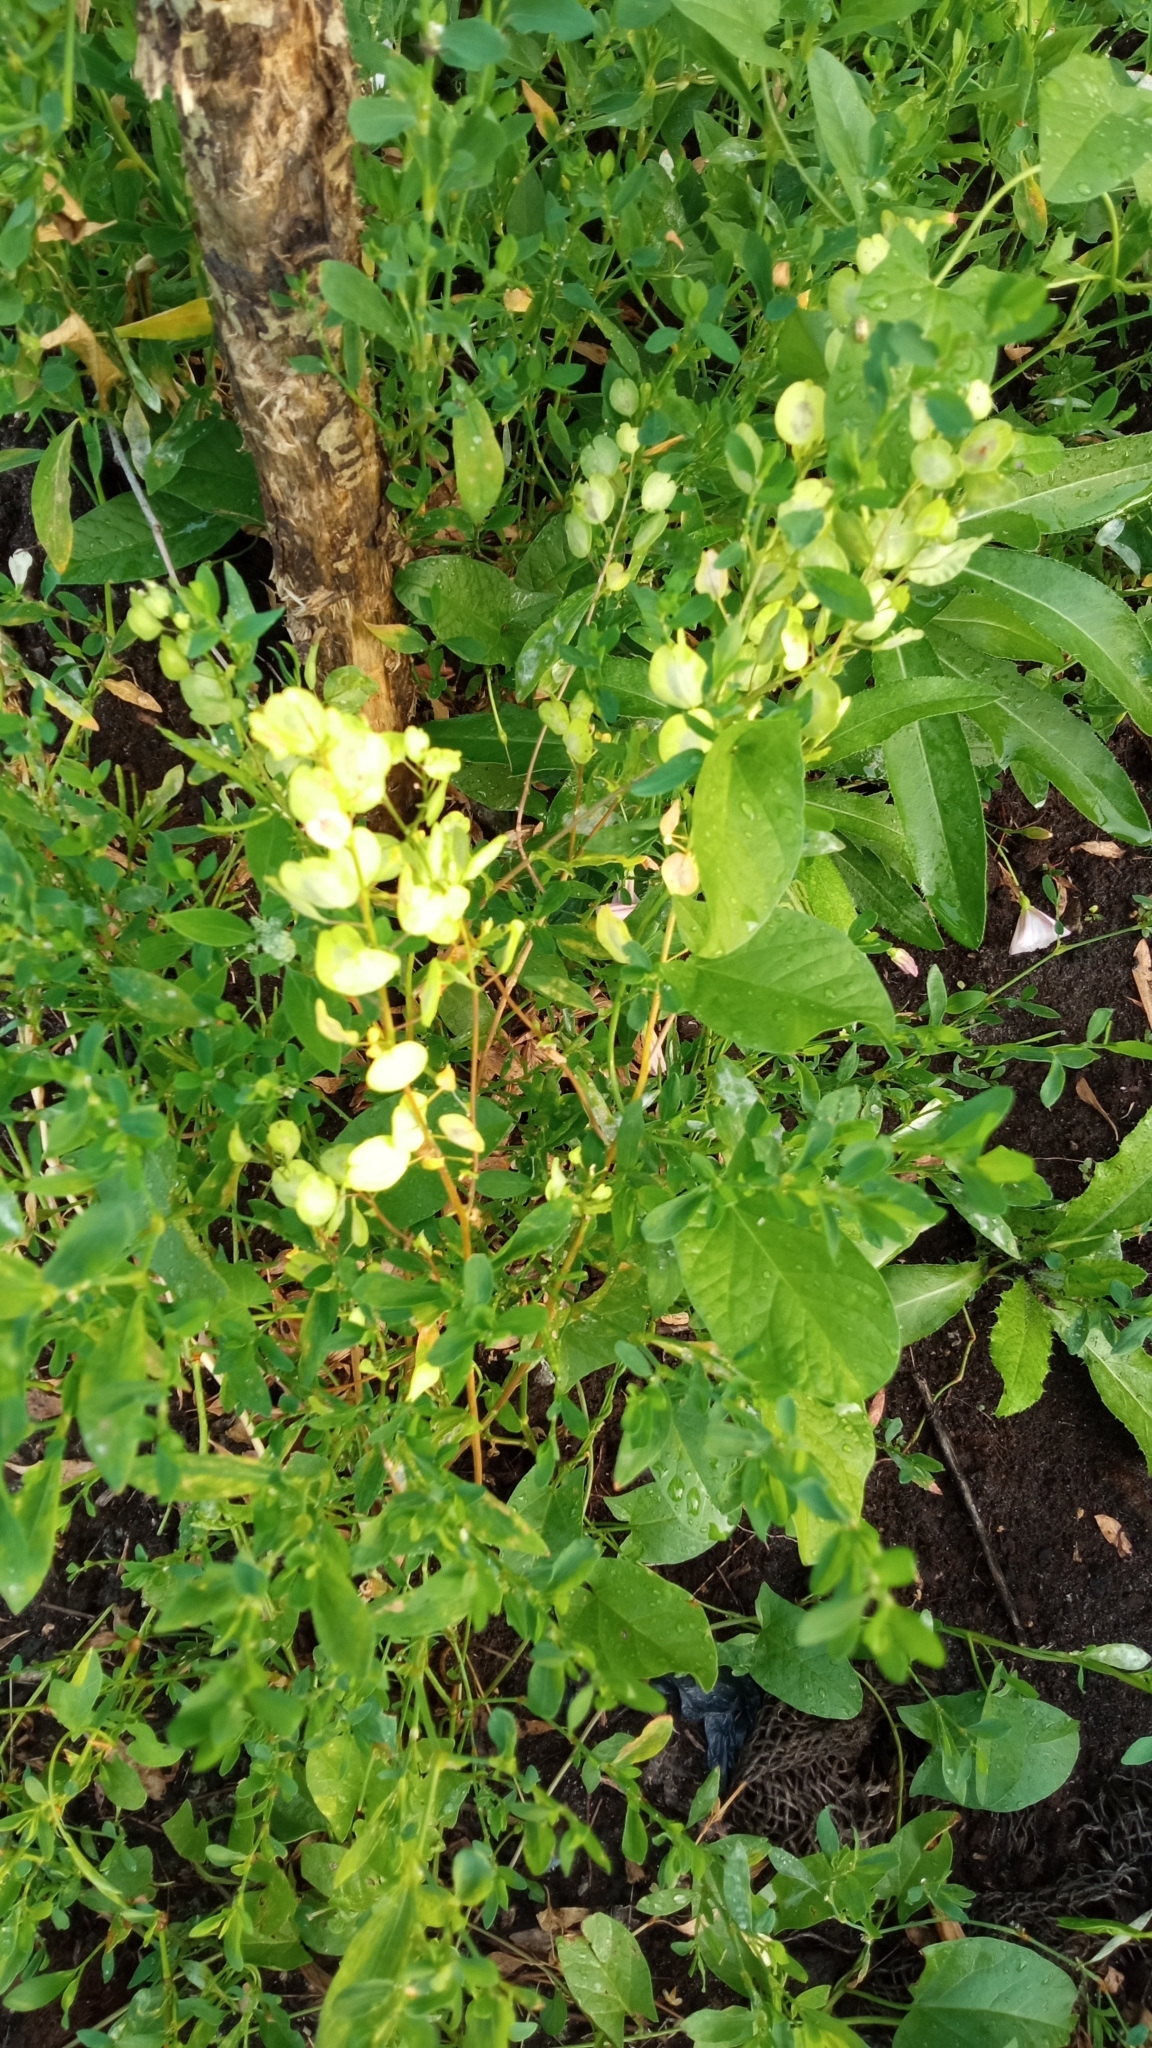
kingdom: Plantae
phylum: Tracheophyta
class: Magnoliopsida
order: Brassicales
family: Brassicaceae
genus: Thlaspi
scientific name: Thlaspi arvense
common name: Field pennycress
